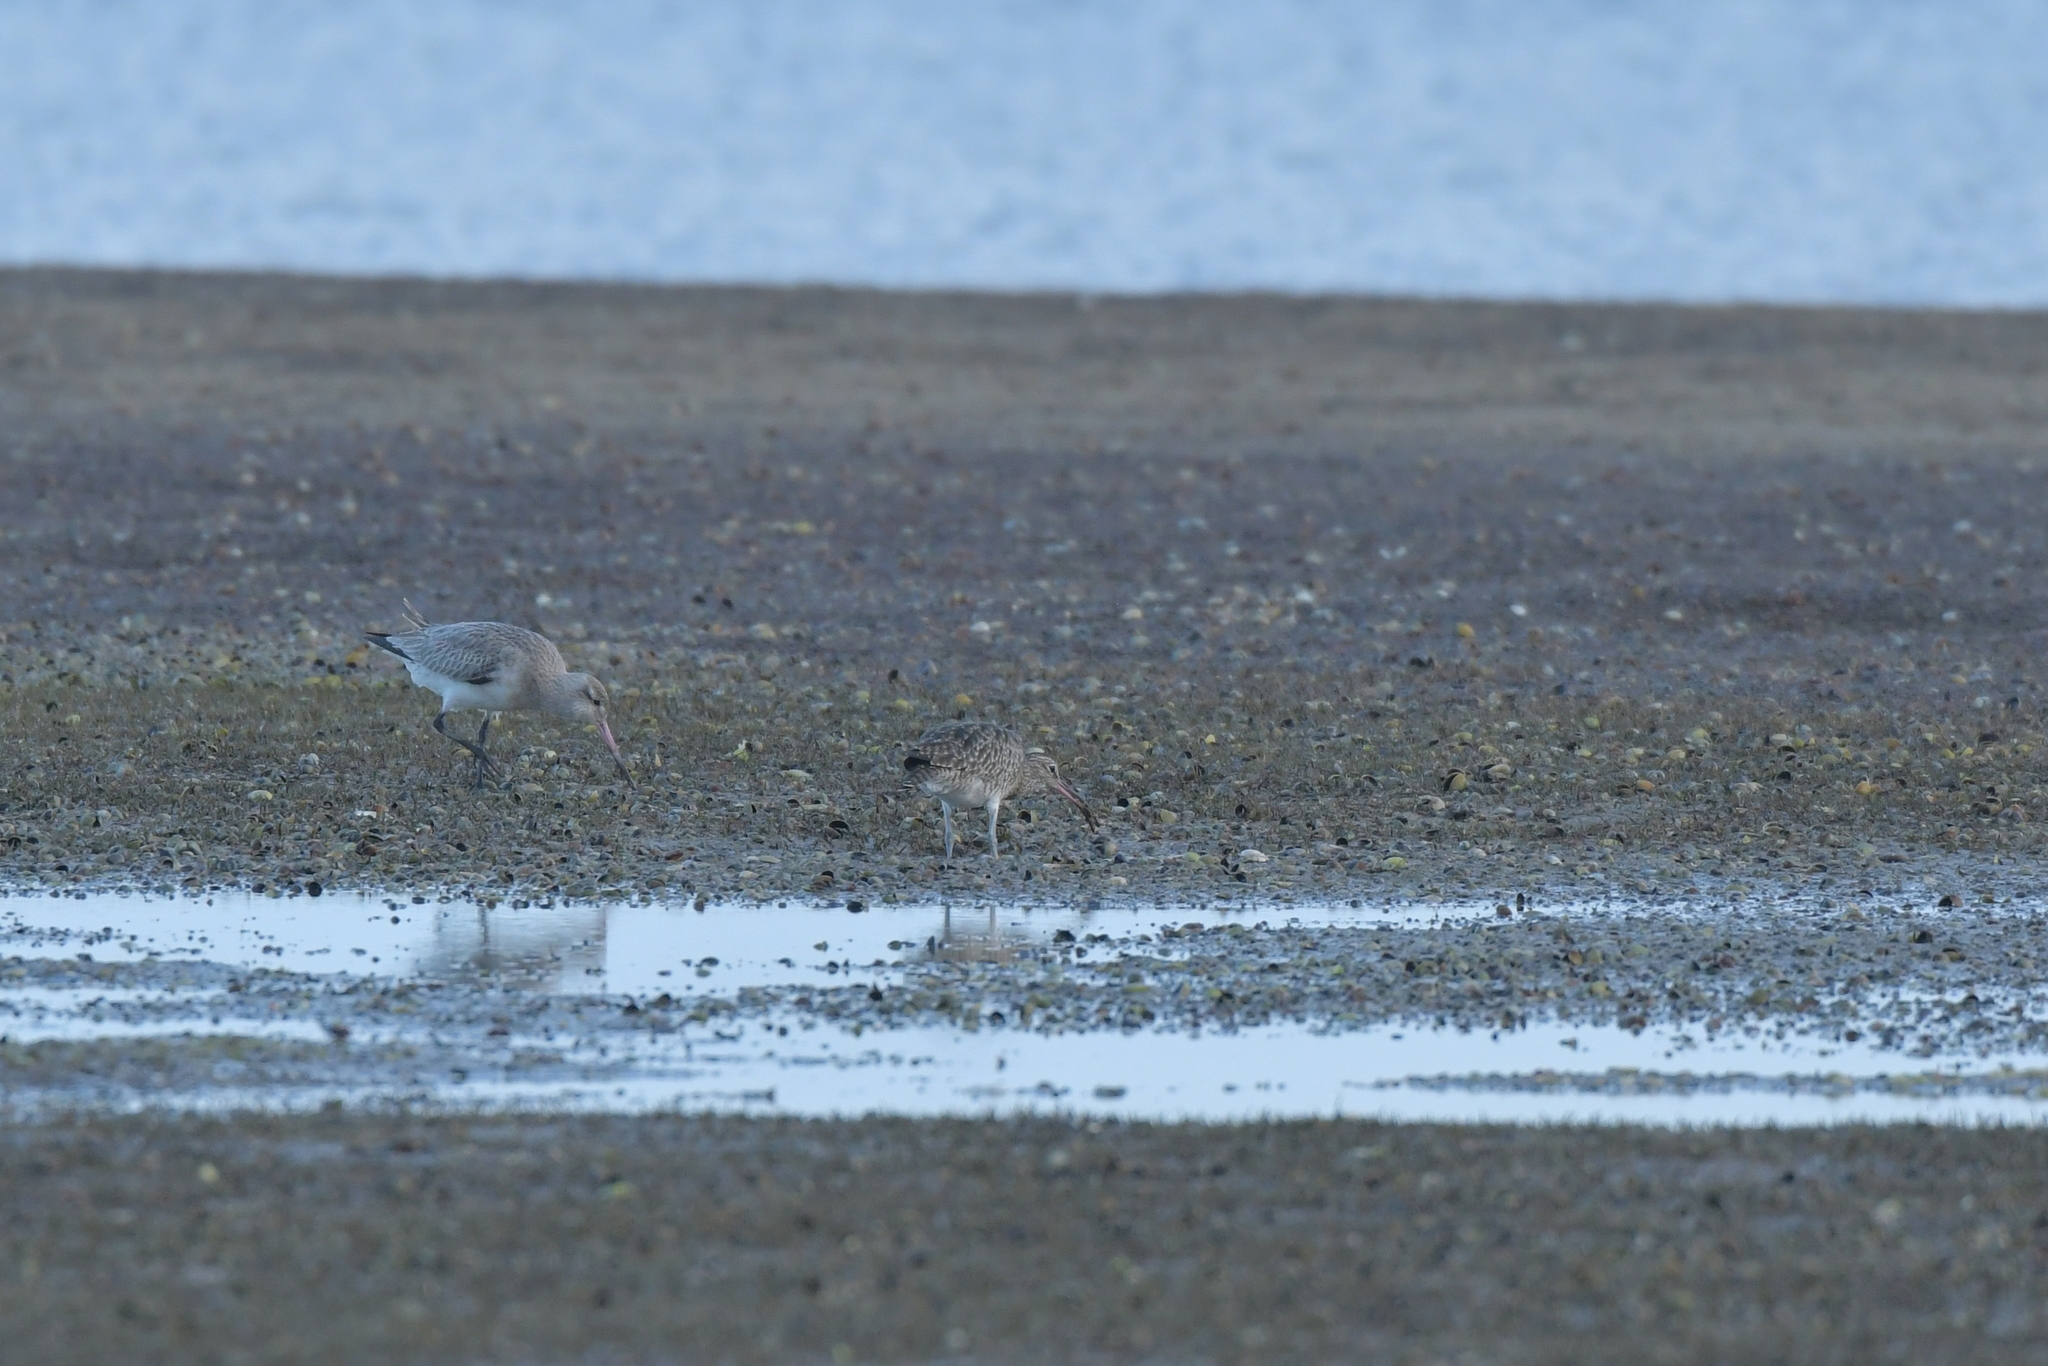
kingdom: Animalia
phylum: Chordata
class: Aves
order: Charadriiformes
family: Scolopacidae
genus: Numenius
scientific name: Numenius phaeopus
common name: Whimbrel
